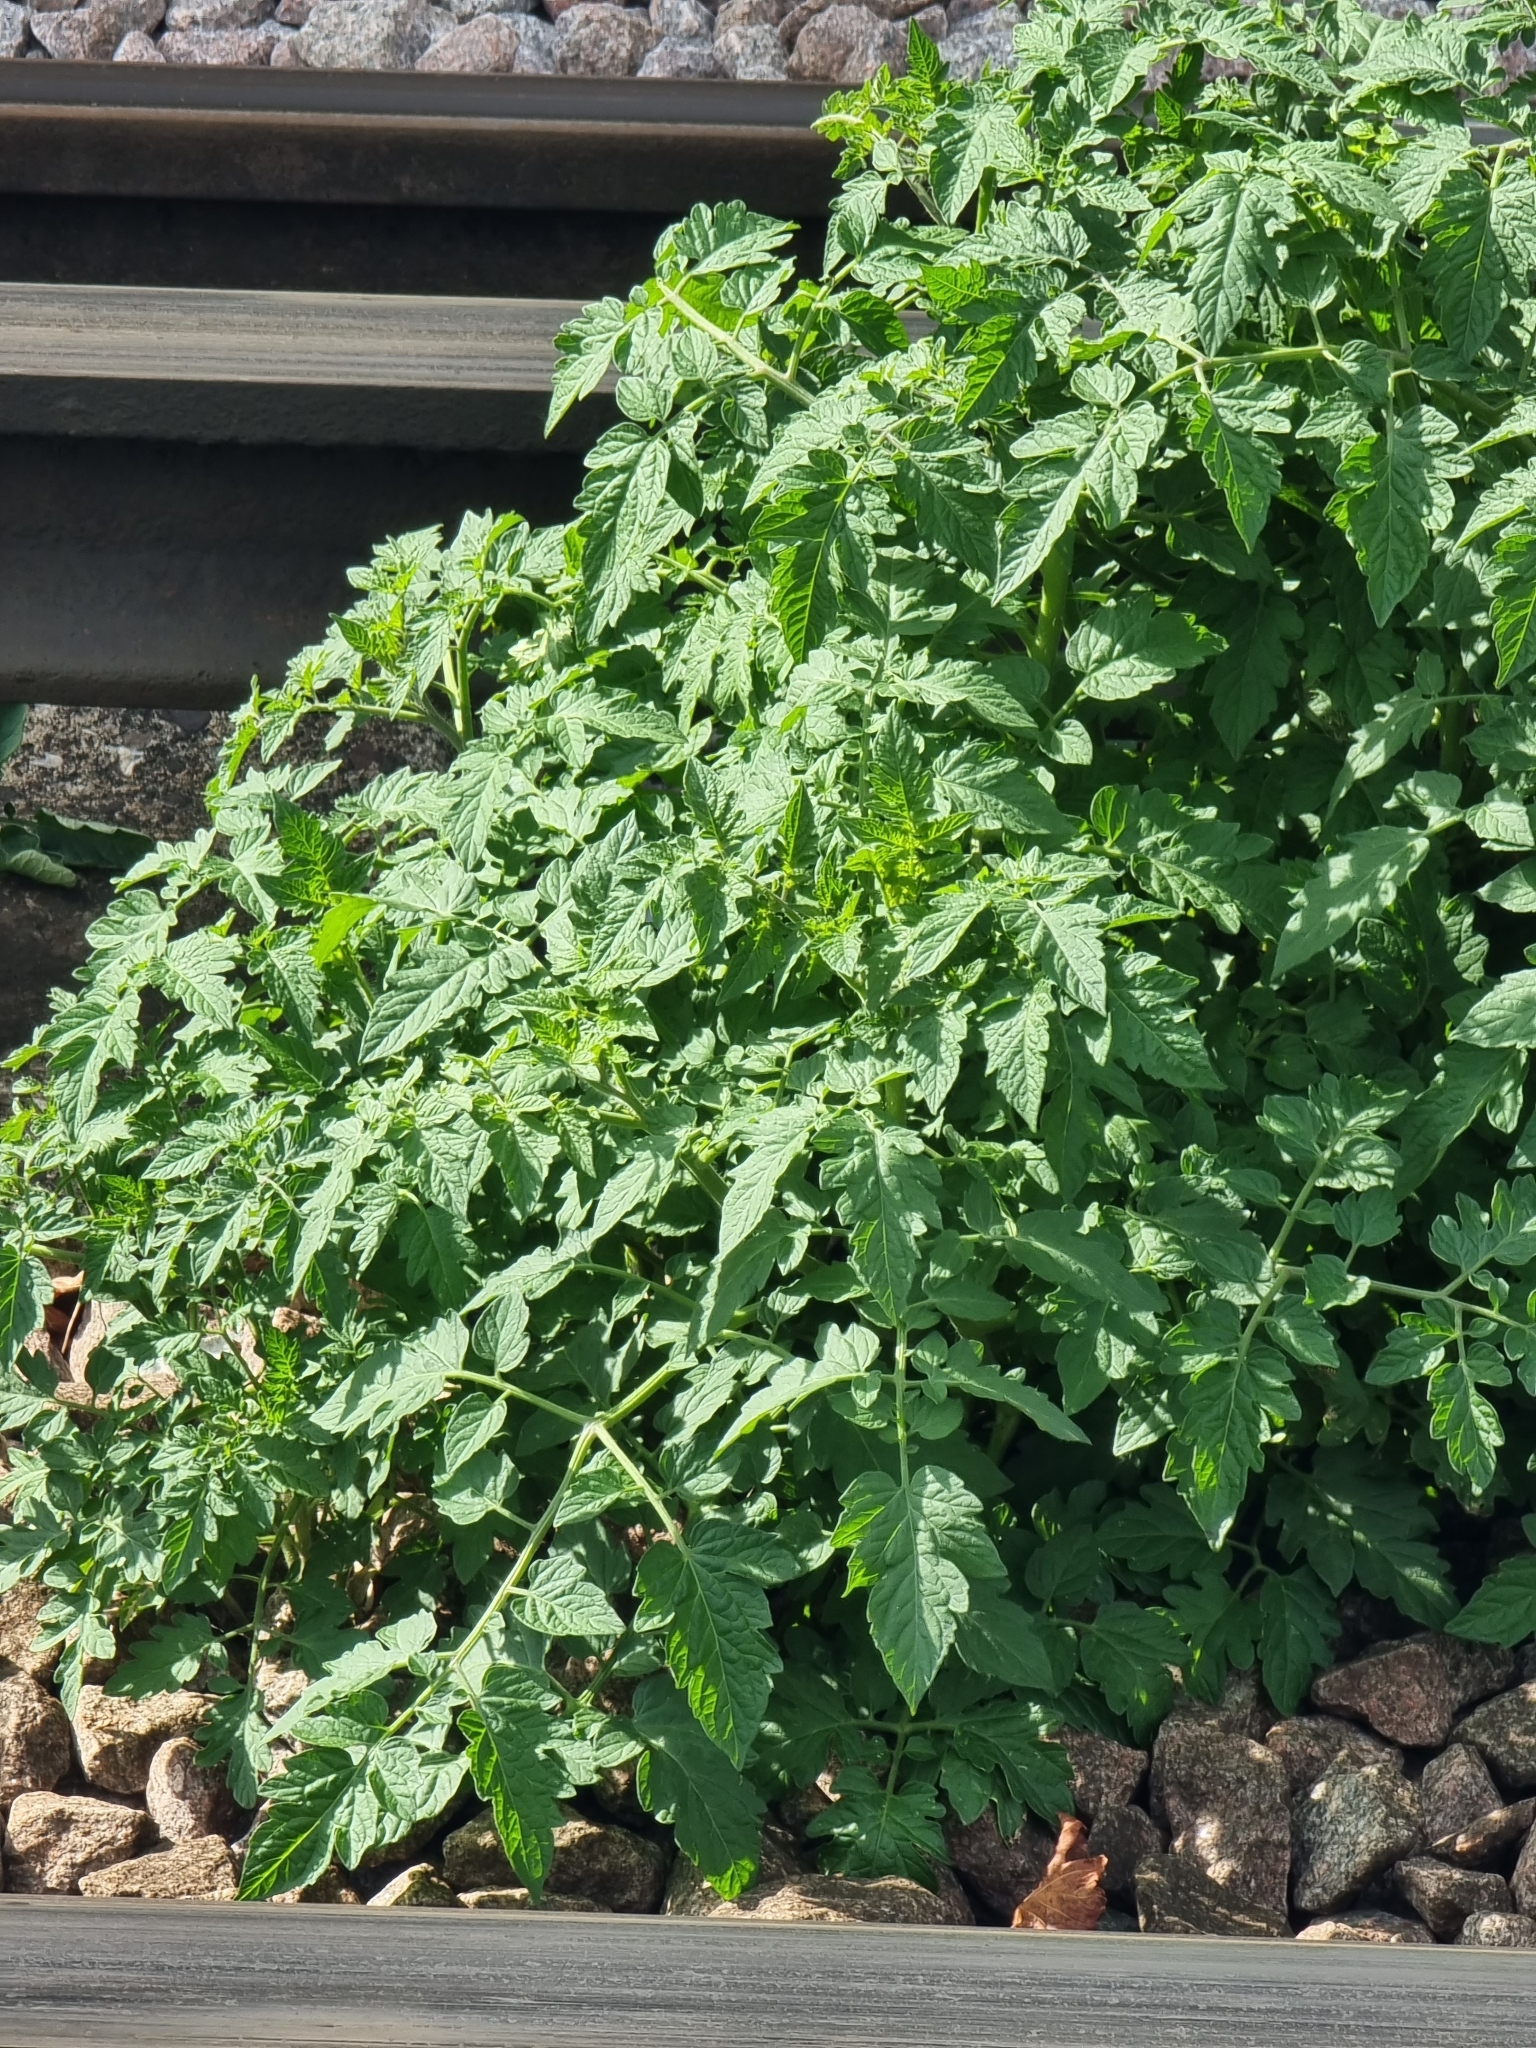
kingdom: Plantae
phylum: Tracheophyta
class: Magnoliopsida
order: Solanales
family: Solanaceae
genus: Solanum
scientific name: Solanum lycopersicum
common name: Garden tomato
